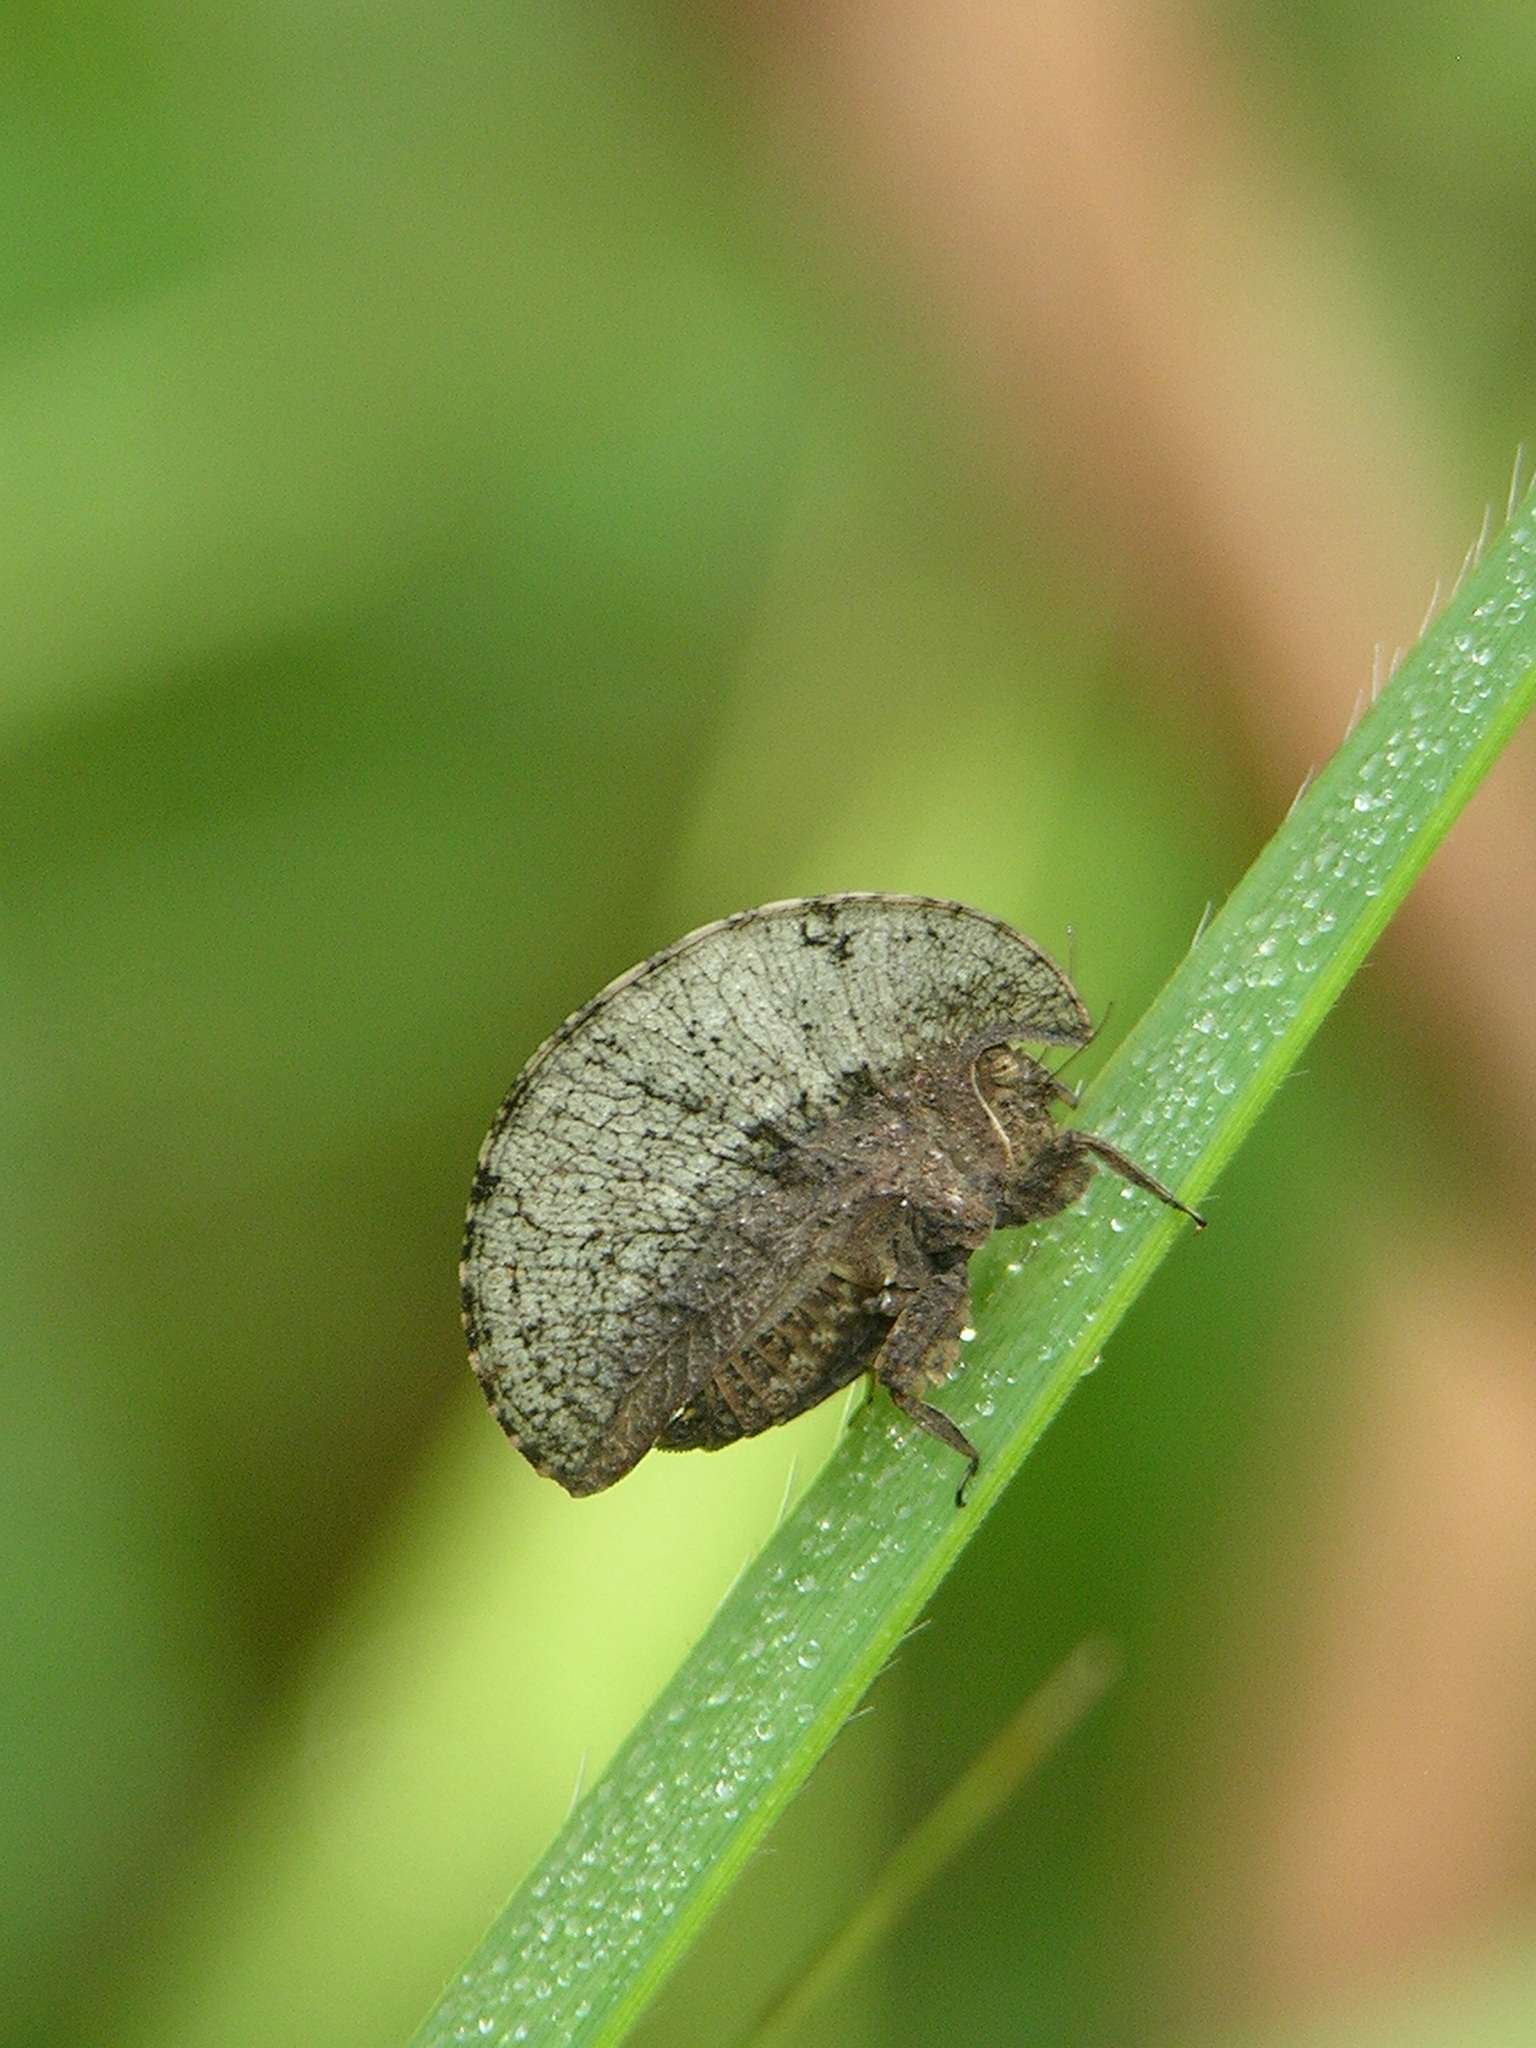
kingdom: Animalia
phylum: Arthropoda
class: Insecta
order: Orthoptera
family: Tetrigidae
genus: Xerophyllum
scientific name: Xerophyllum platycorys
